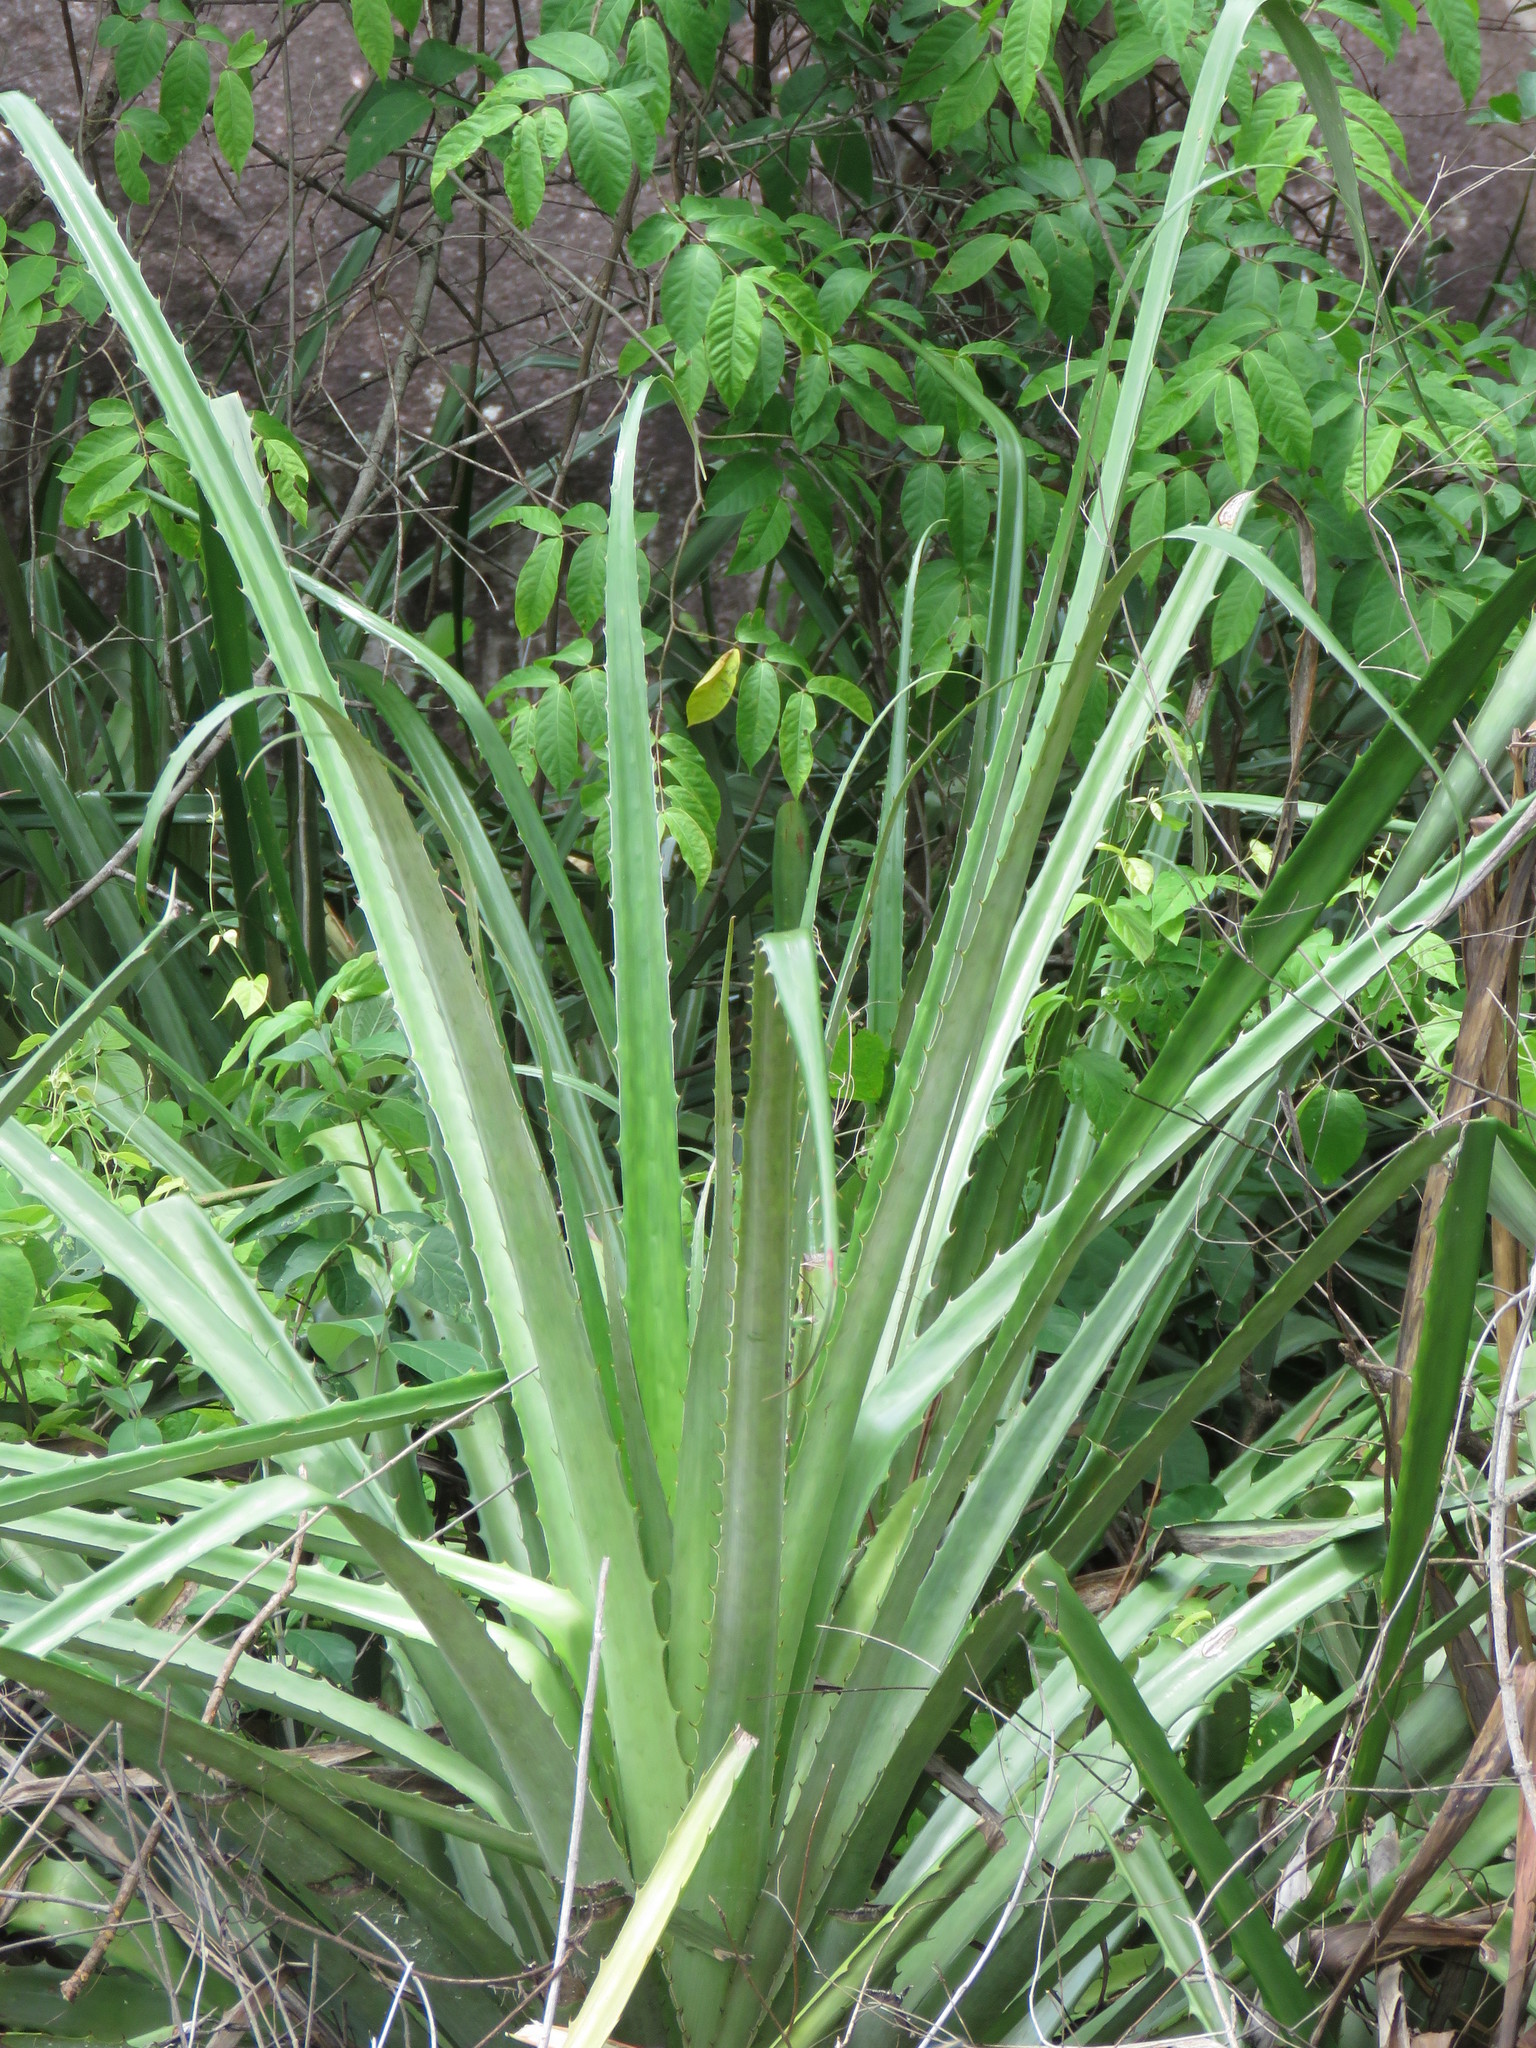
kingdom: Plantae
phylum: Tracheophyta
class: Liliopsida
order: Poales
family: Bromeliaceae
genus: Bromelia
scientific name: Bromelia pinguin
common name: Pinguin
